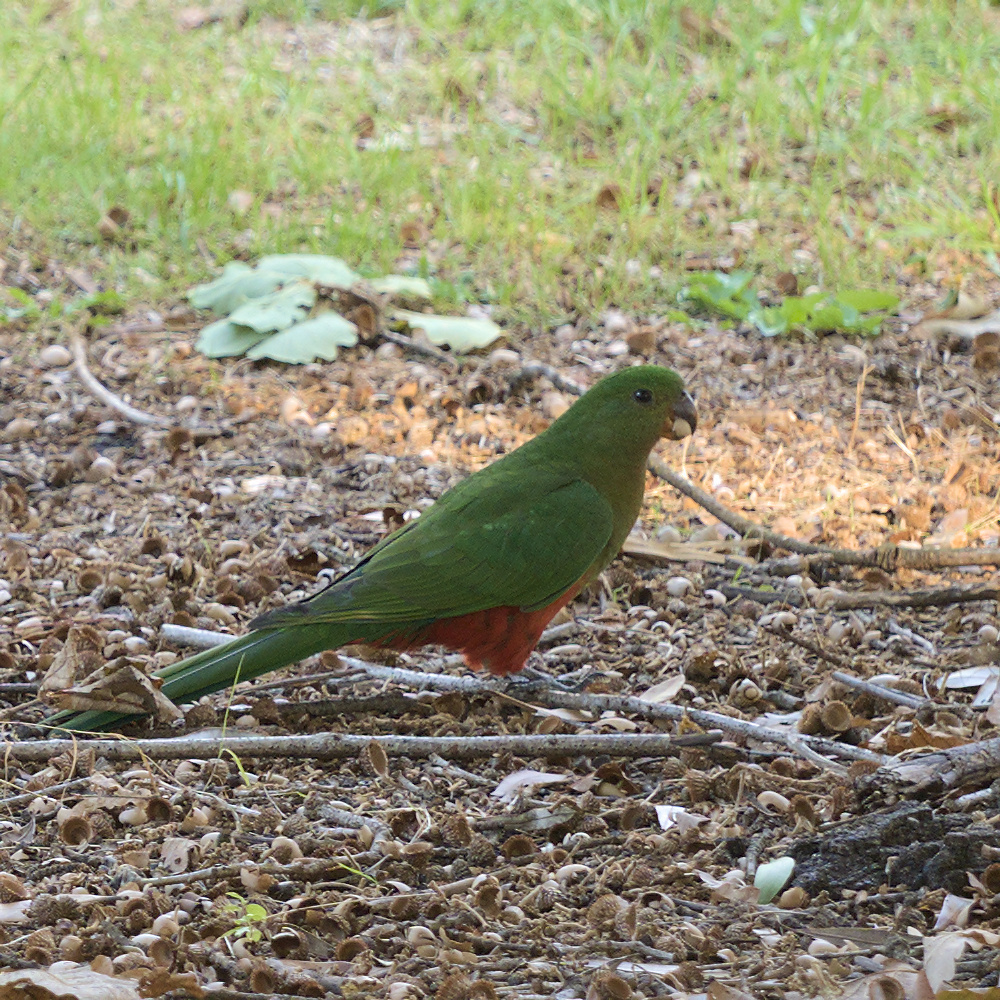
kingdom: Animalia
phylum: Chordata
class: Aves
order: Psittaciformes
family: Psittacidae
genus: Alisterus
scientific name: Alisterus scapularis
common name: Australian king parrot
